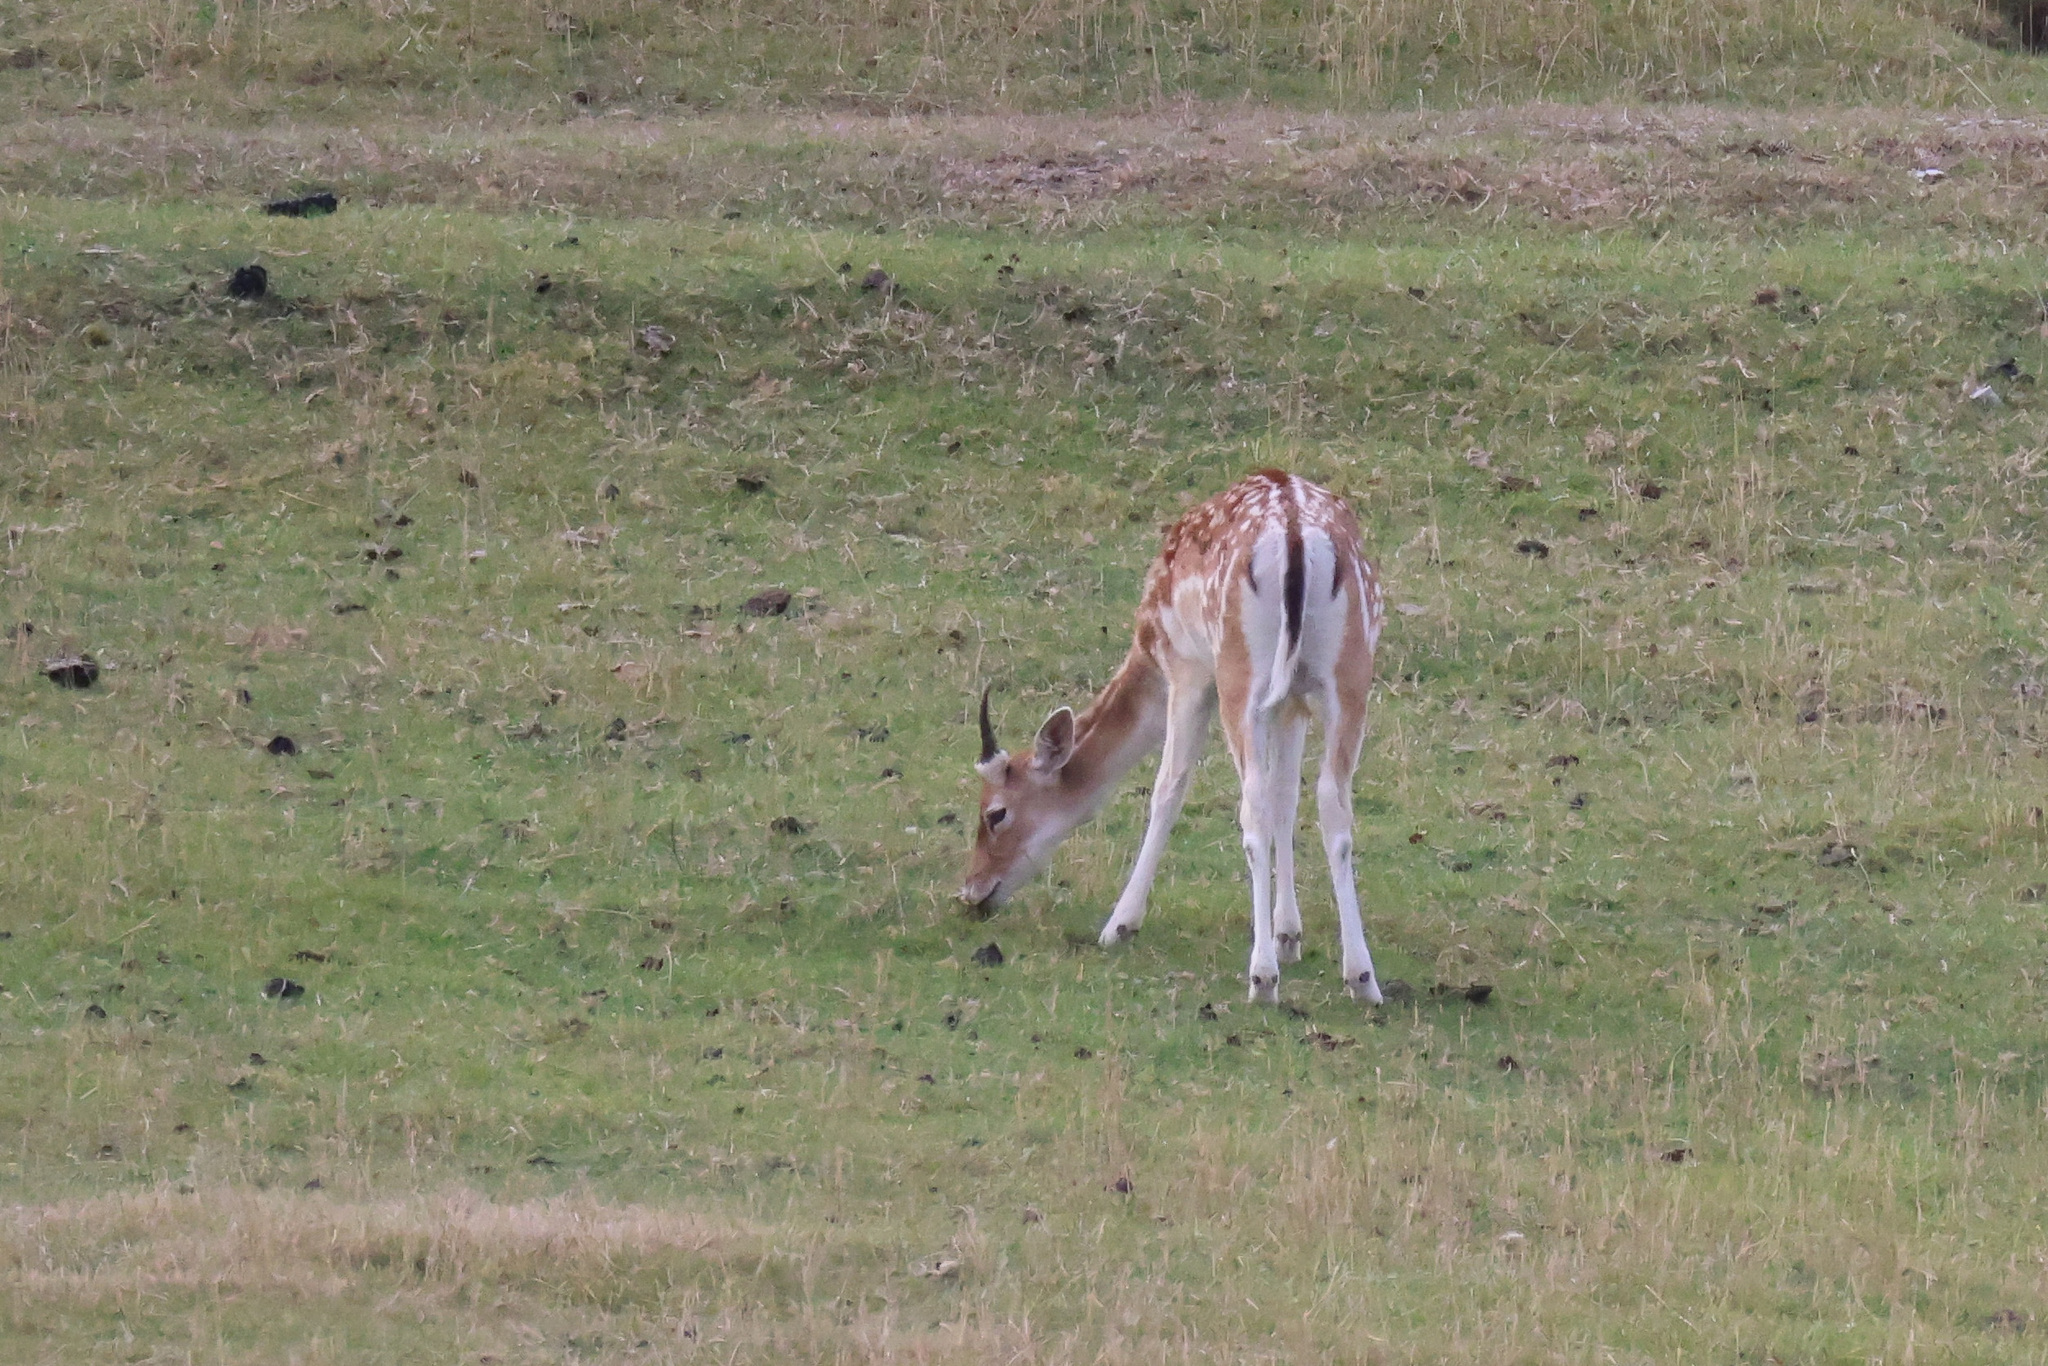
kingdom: Animalia
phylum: Chordata
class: Mammalia
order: Artiodactyla
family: Cervidae
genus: Dama
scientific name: Dama dama
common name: Fallow deer
